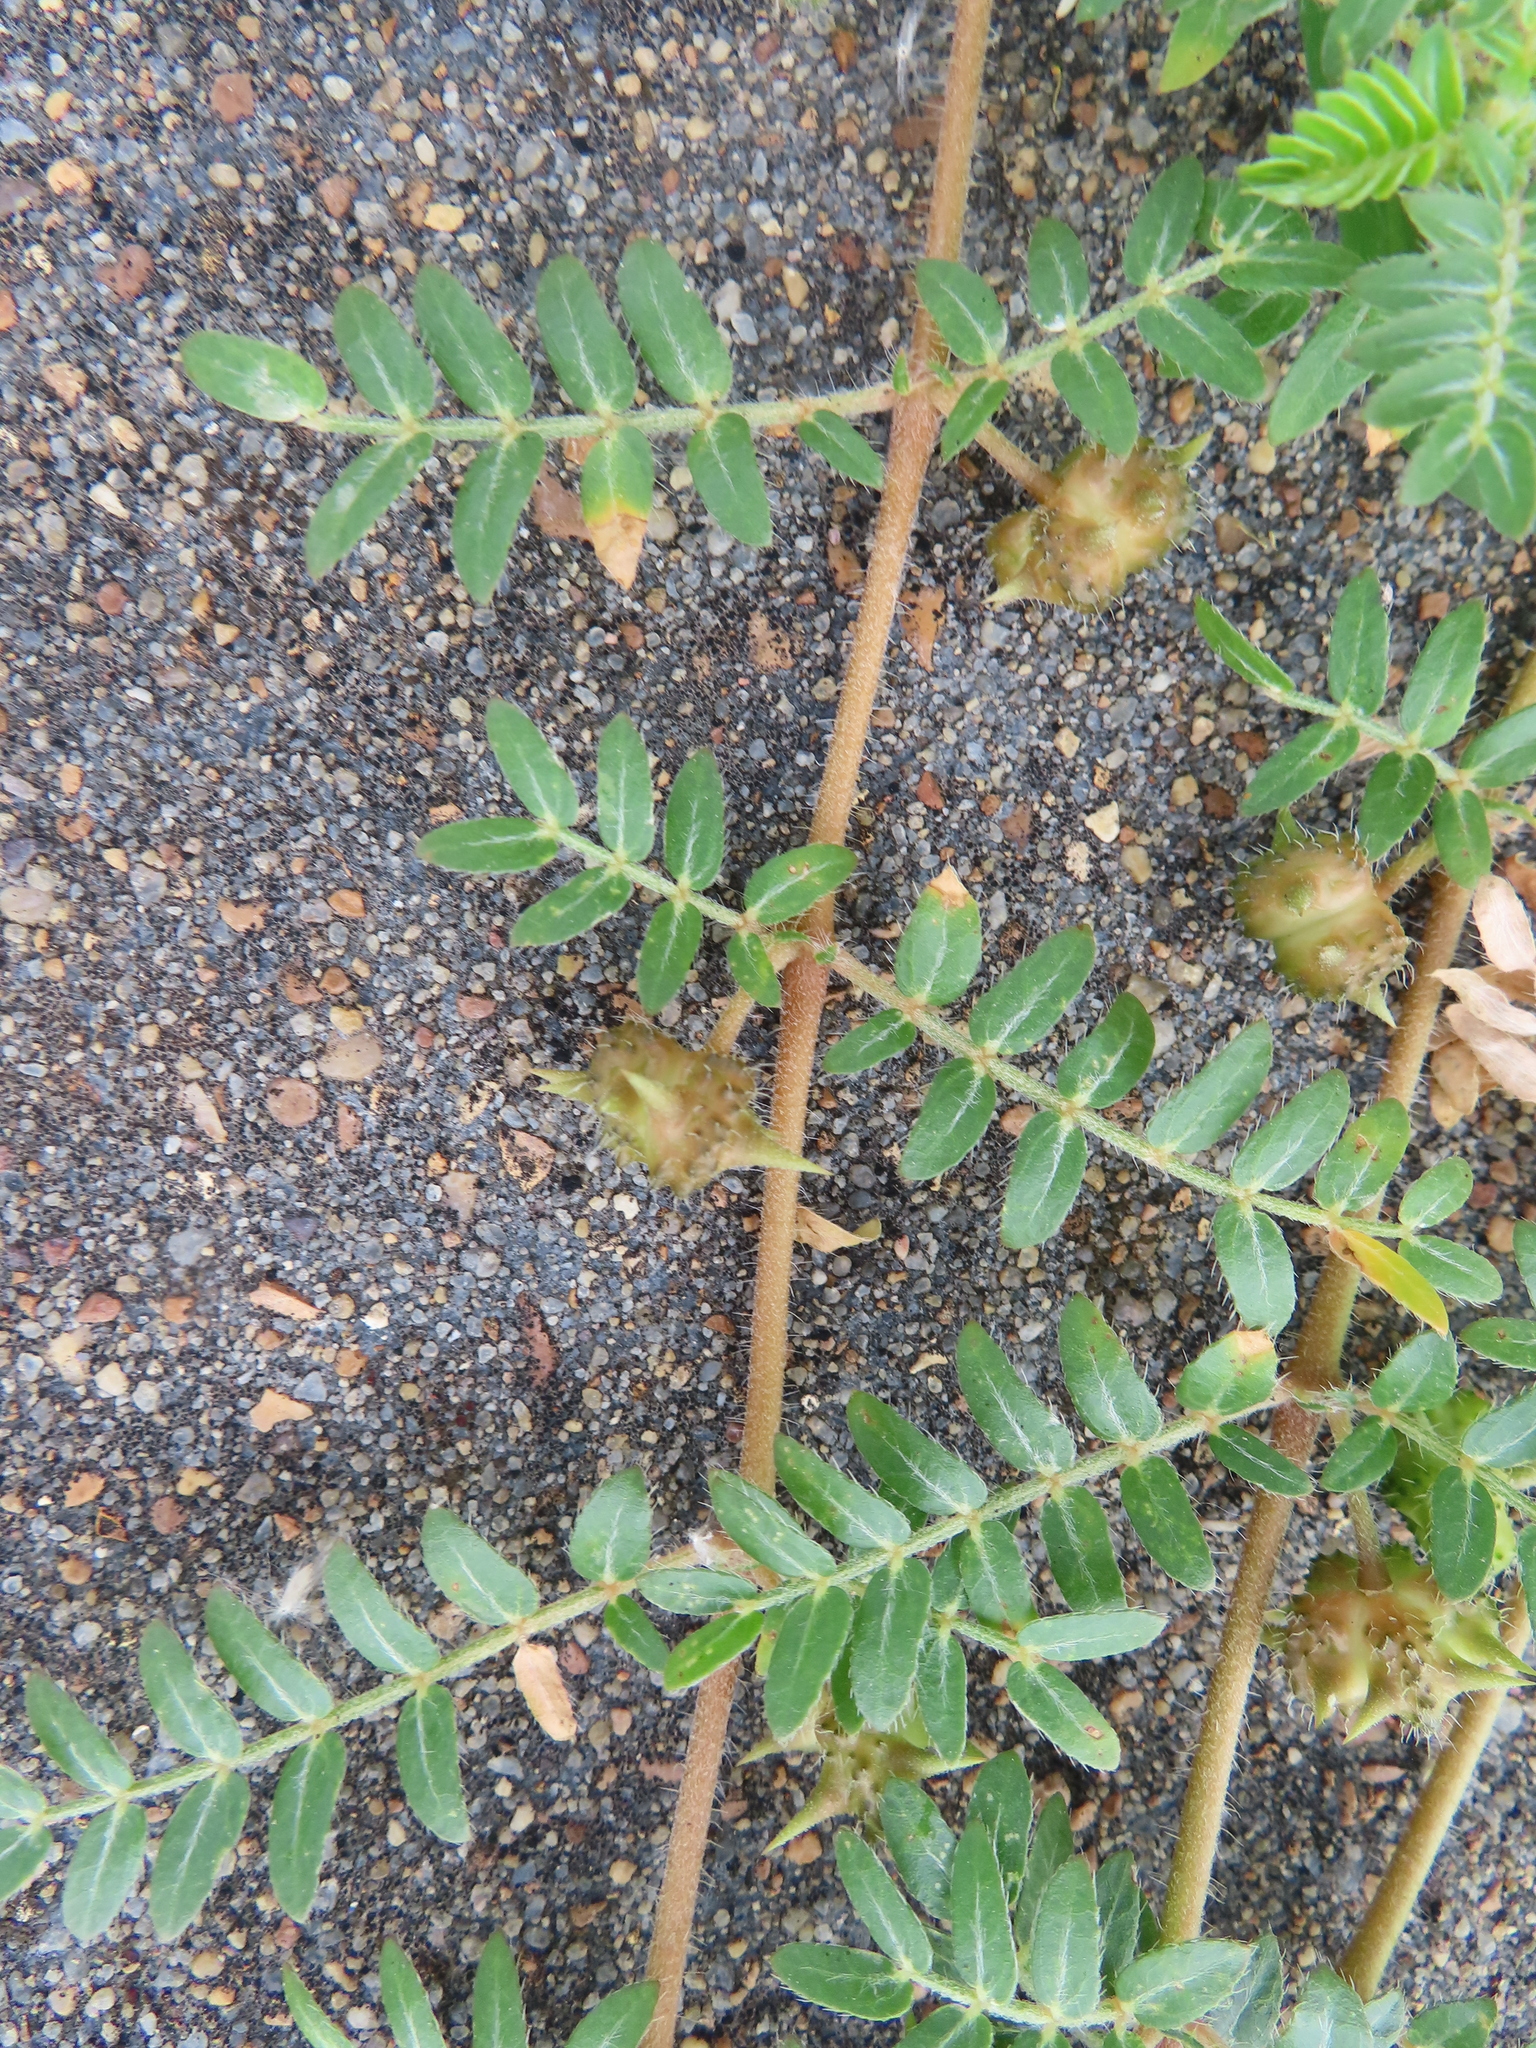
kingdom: Plantae
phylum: Tracheophyta
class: Magnoliopsida
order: Zygophyllales
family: Zygophyllaceae
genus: Tribulus
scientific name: Tribulus terrestris
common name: Puncturevine
